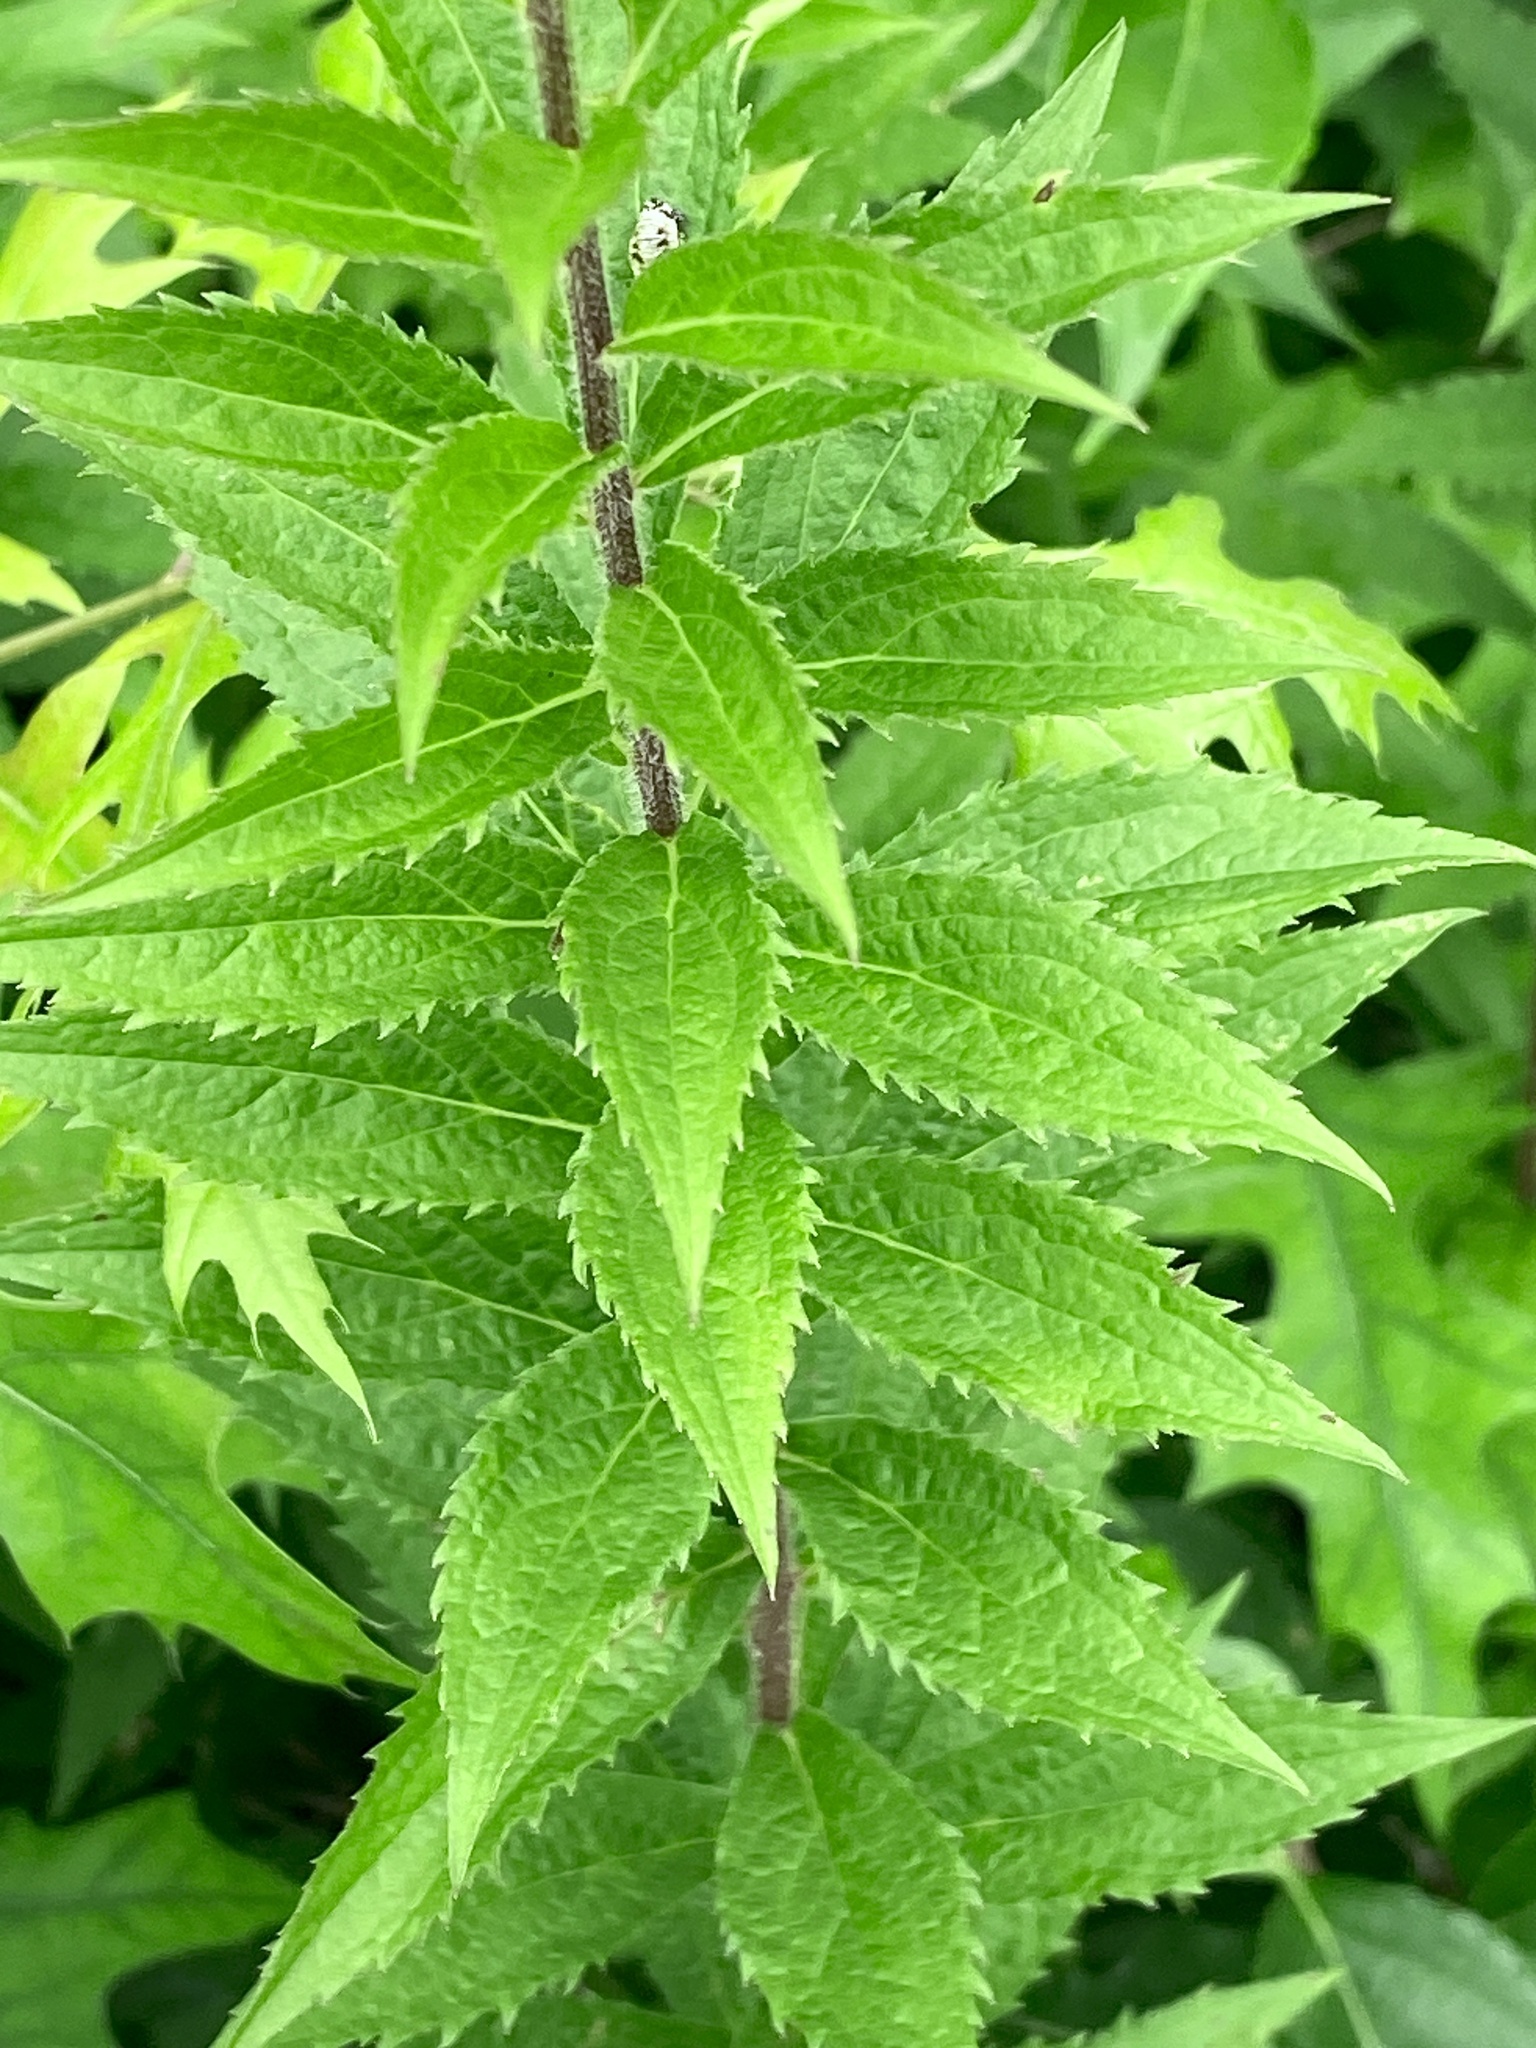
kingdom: Plantae
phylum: Tracheophyta
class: Magnoliopsida
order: Asterales
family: Asteraceae
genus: Solidago
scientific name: Solidago rugosa
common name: Rough-stemmed goldenrod
